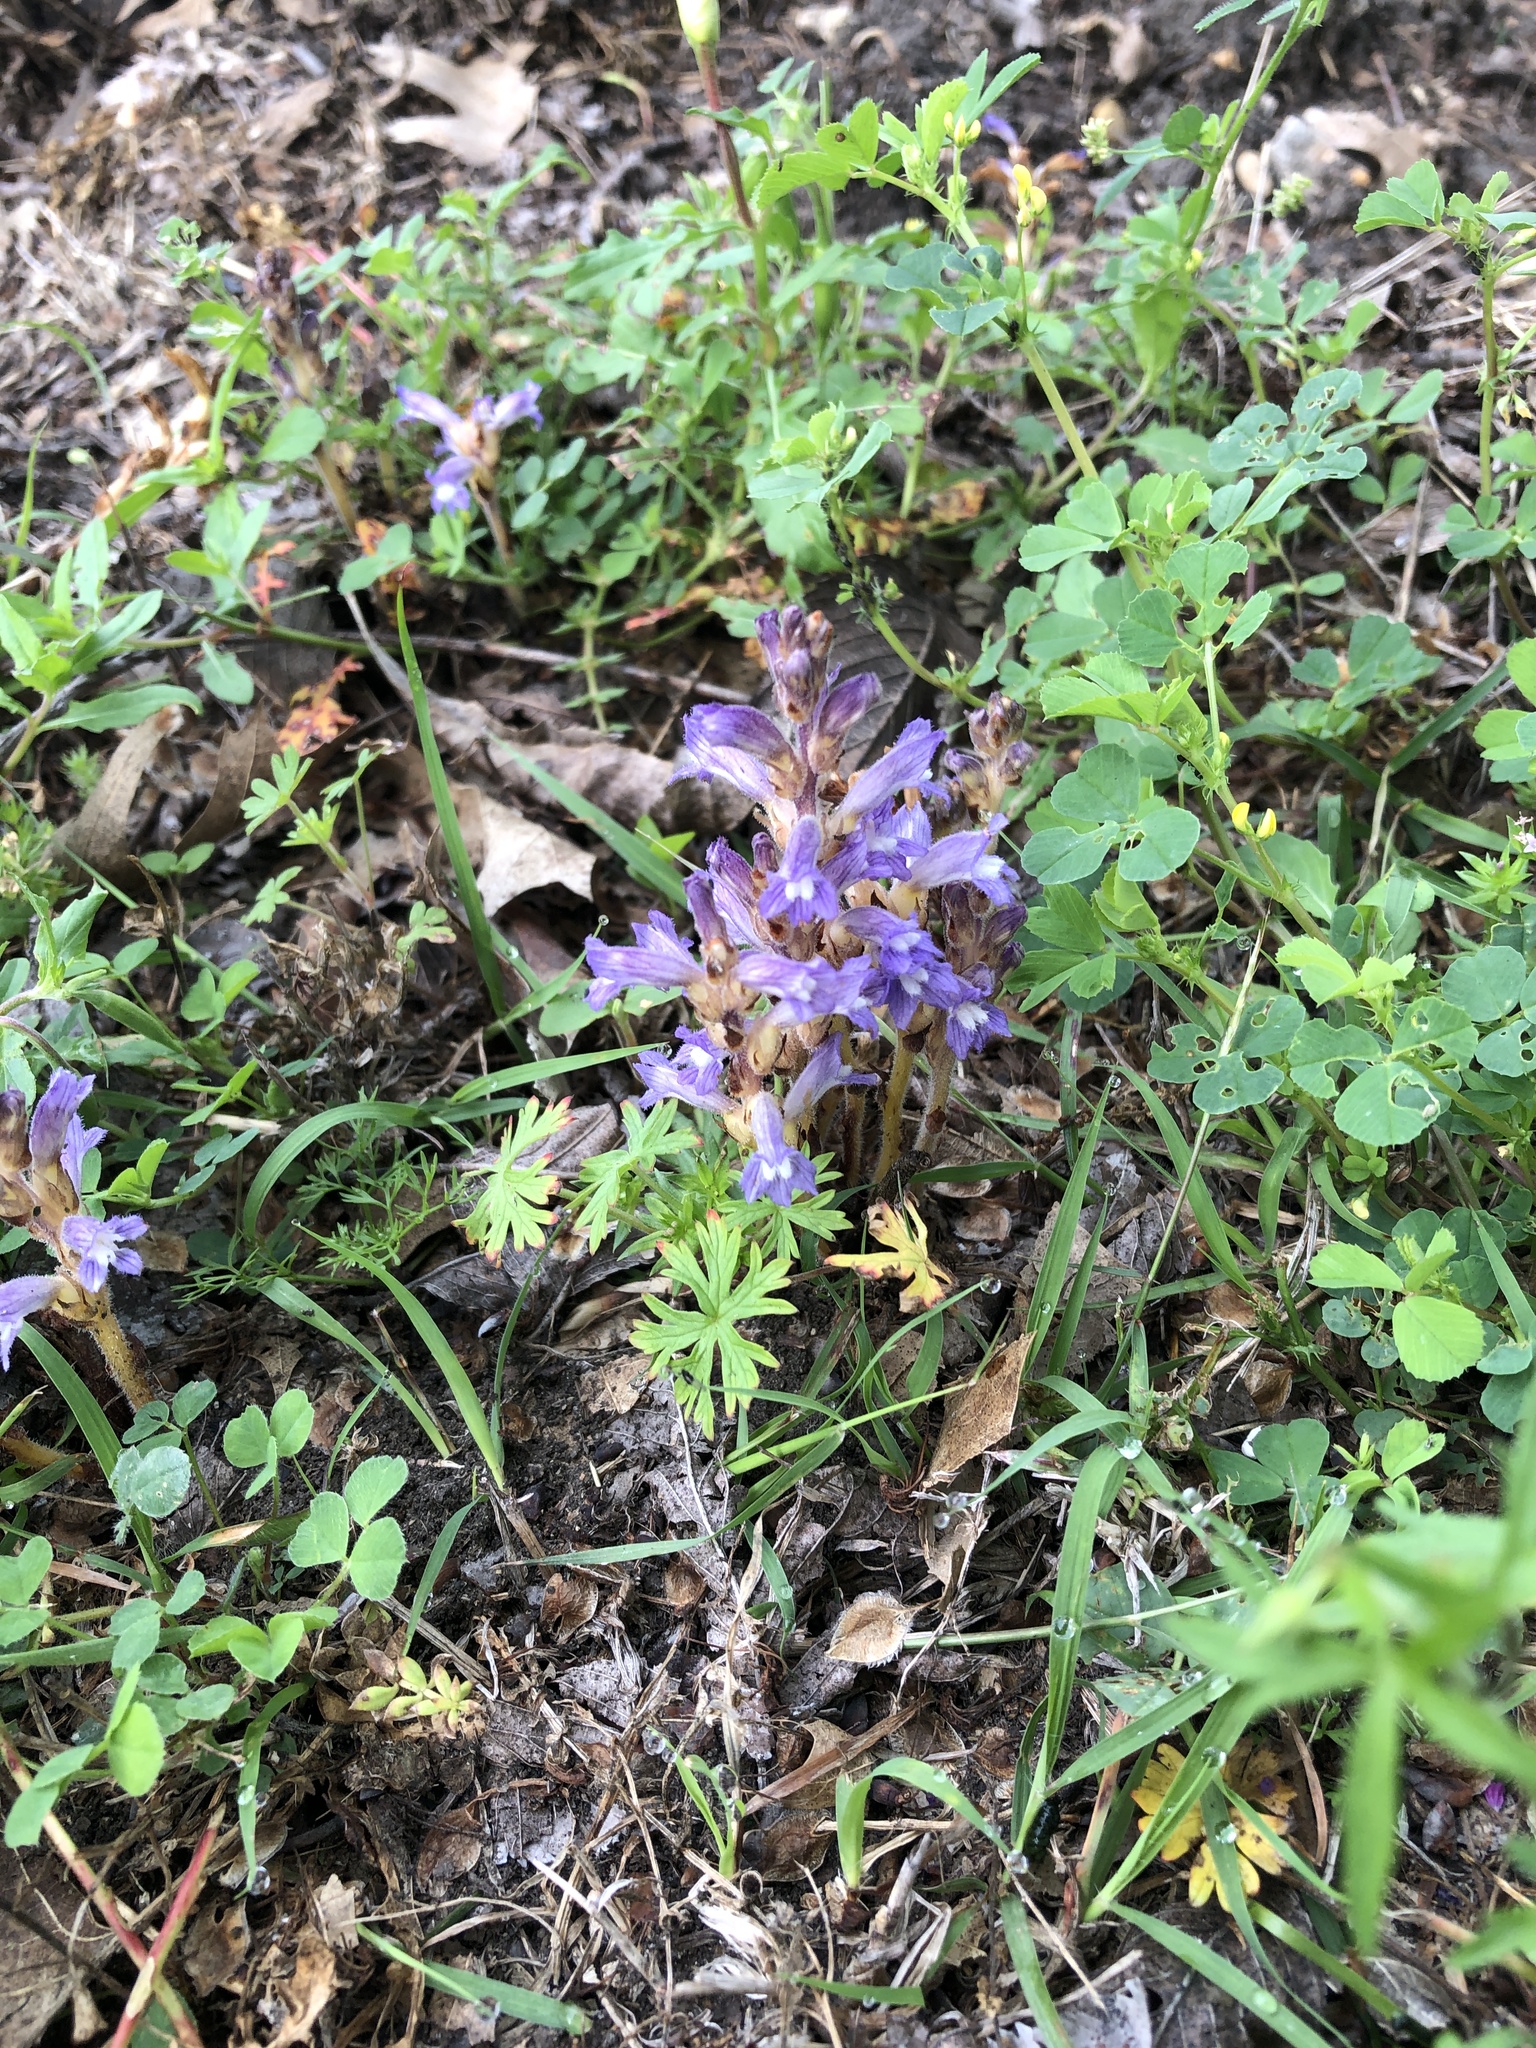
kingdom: Plantae
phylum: Tracheophyta
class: Magnoliopsida
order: Lamiales
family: Orobanchaceae
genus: Phelipanche
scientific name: Phelipanche mutelii
